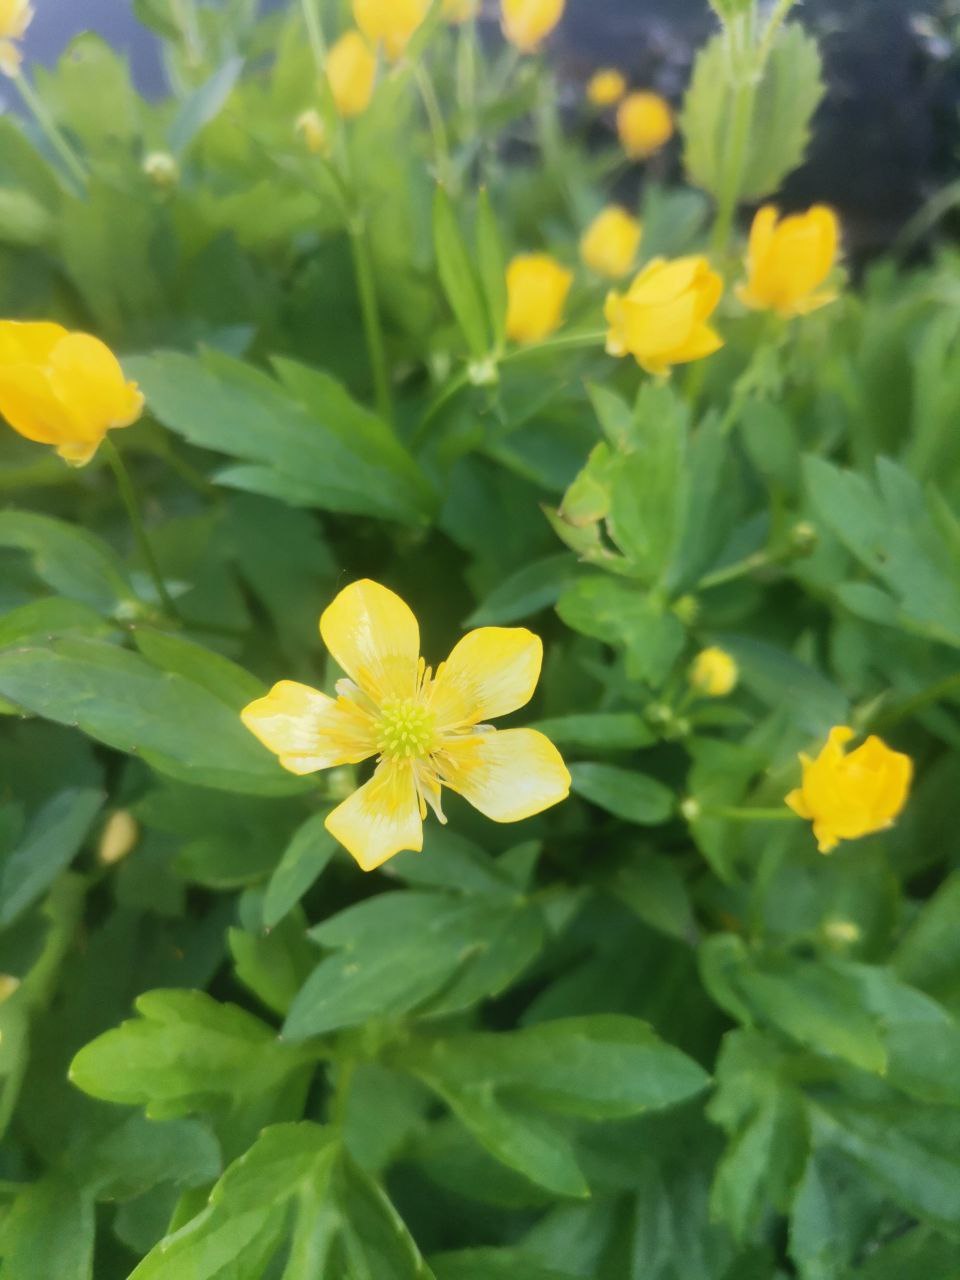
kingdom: Plantae
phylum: Tracheophyta
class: Magnoliopsida
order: Ranunculales
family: Ranunculaceae
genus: Ranunculus
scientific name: Ranunculus repens
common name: Creeping buttercup
